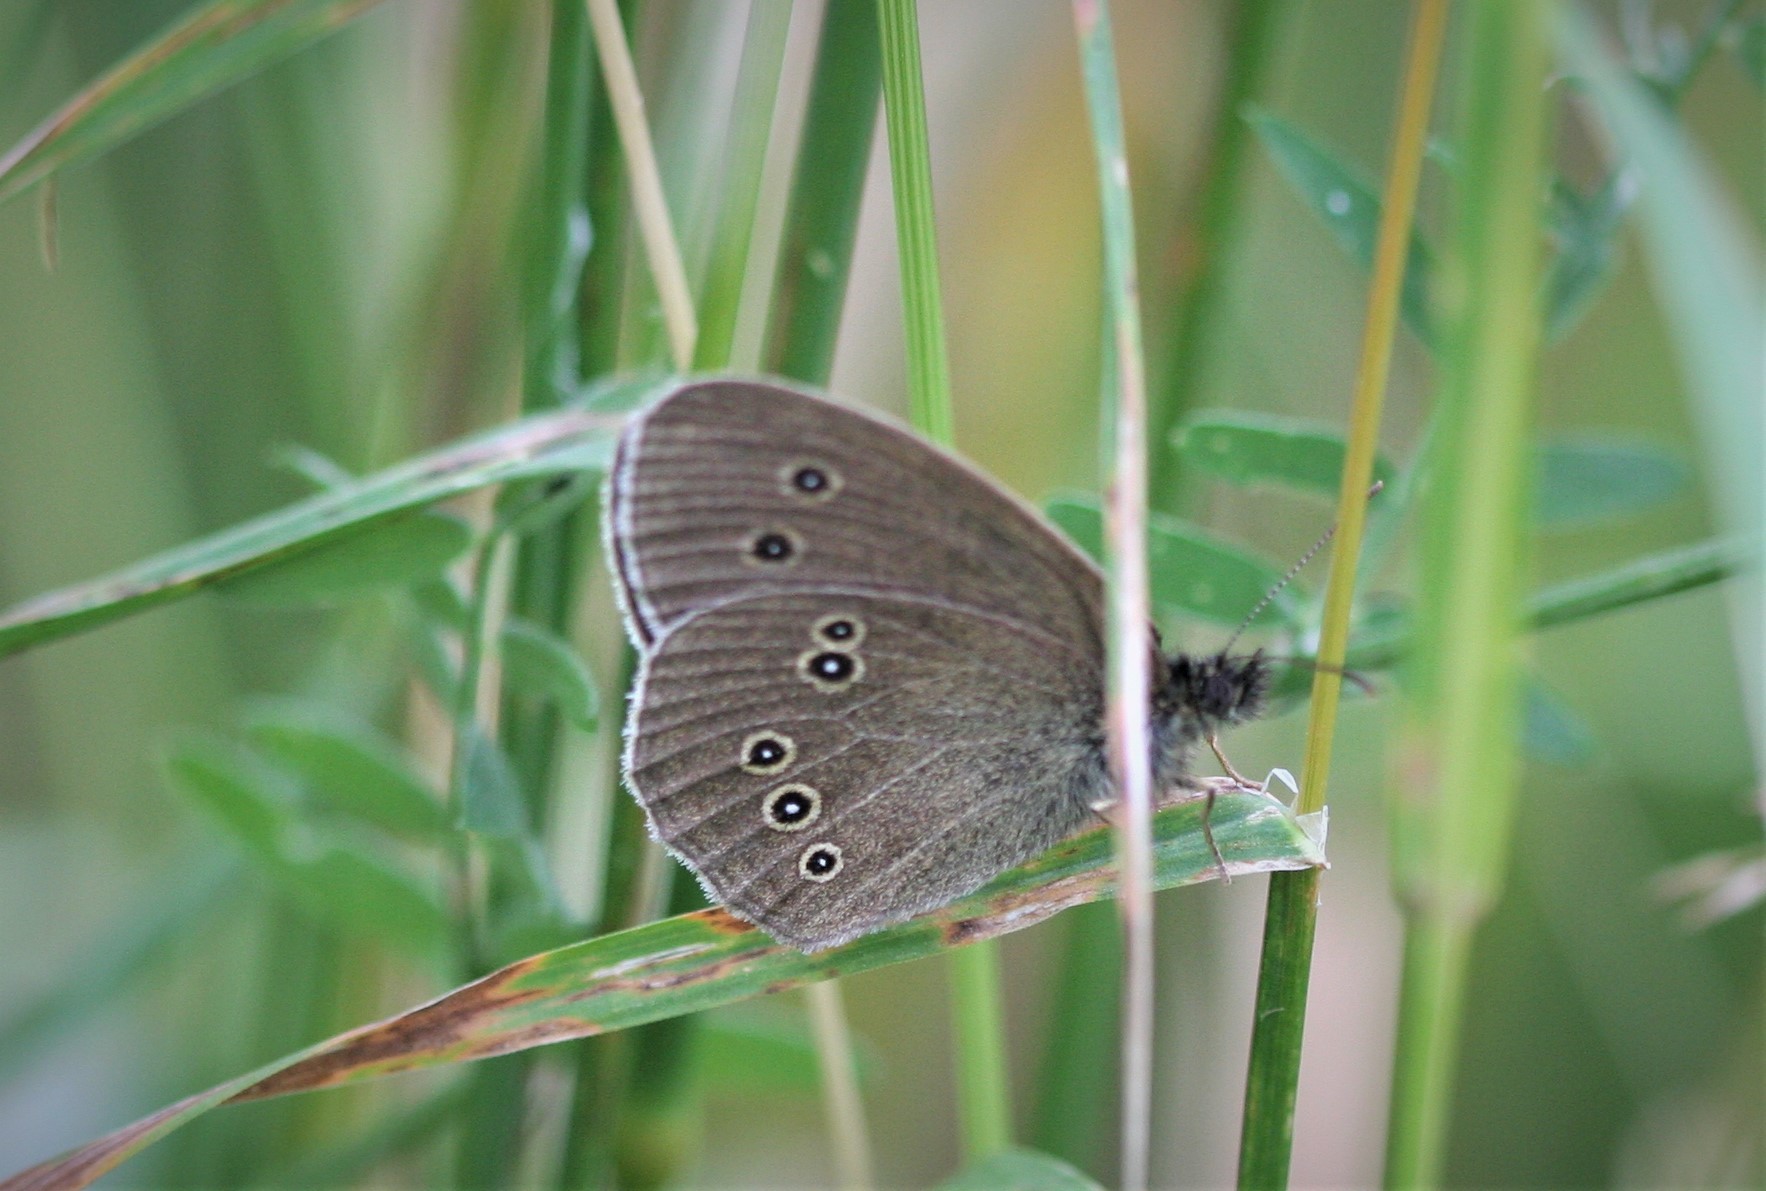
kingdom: Animalia
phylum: Arthropoda
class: Insecta
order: Lepidoptera
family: Nymphalidae
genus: Aphantopus
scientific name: Aphantopus hyperantus
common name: Ringlet
